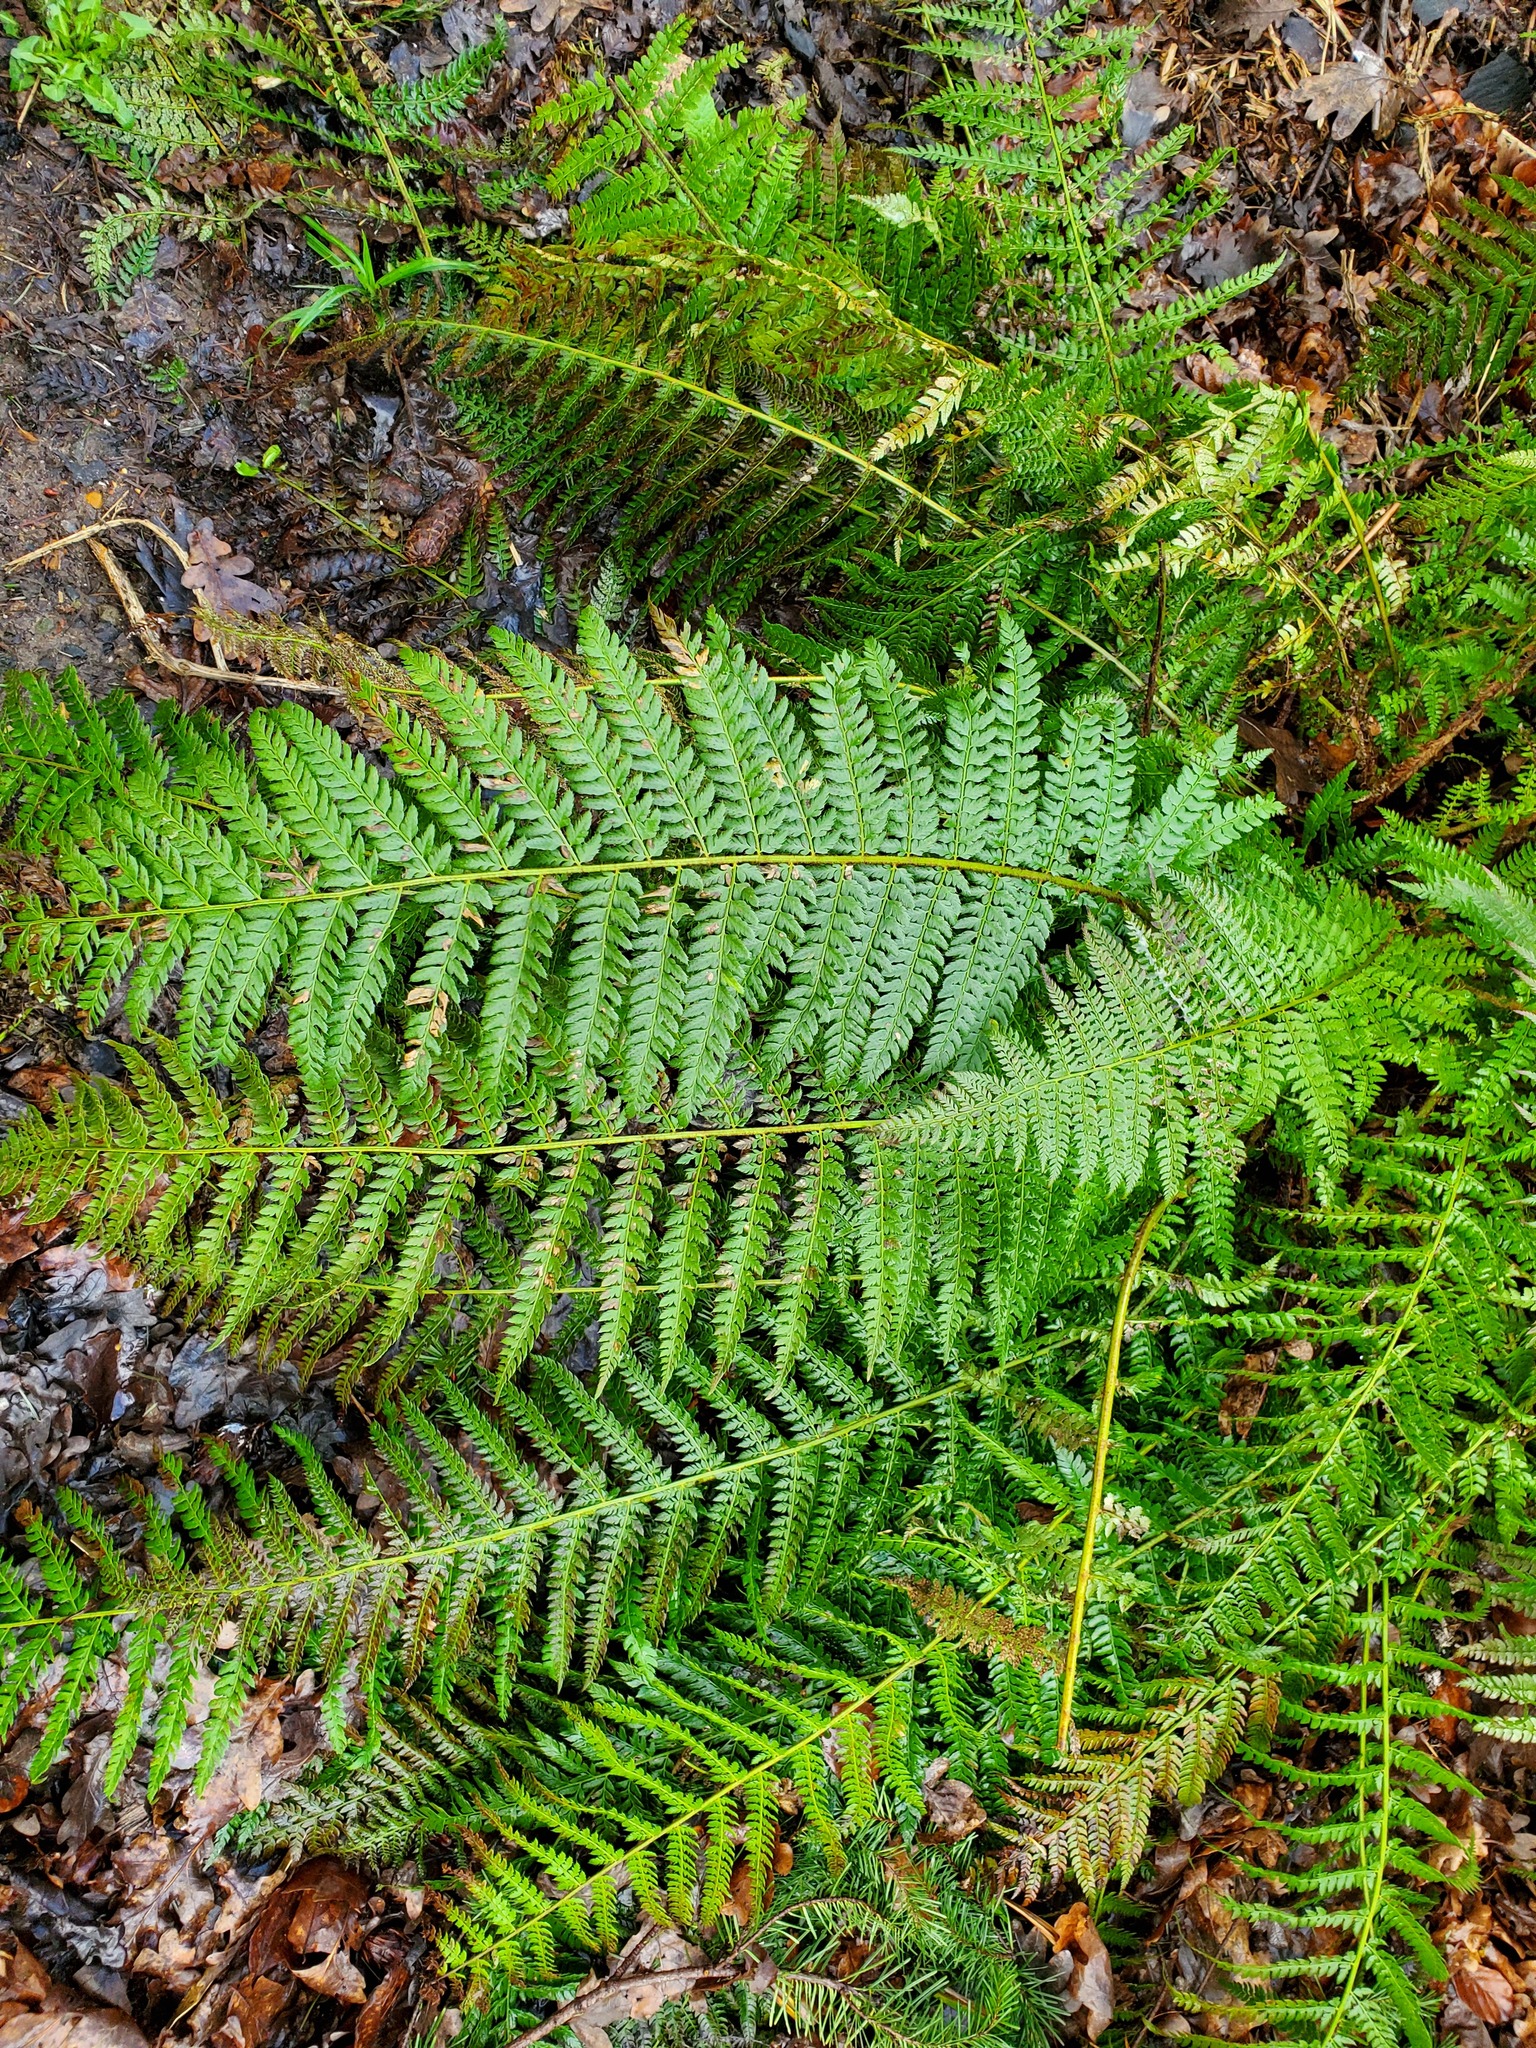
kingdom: Plantae
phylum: Tracheophyta
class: Polypodiopsida
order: Polypodiales
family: Dryopteridaceae
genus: Polystichum
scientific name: Polystichum setiferum
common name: Soft shield-fern
